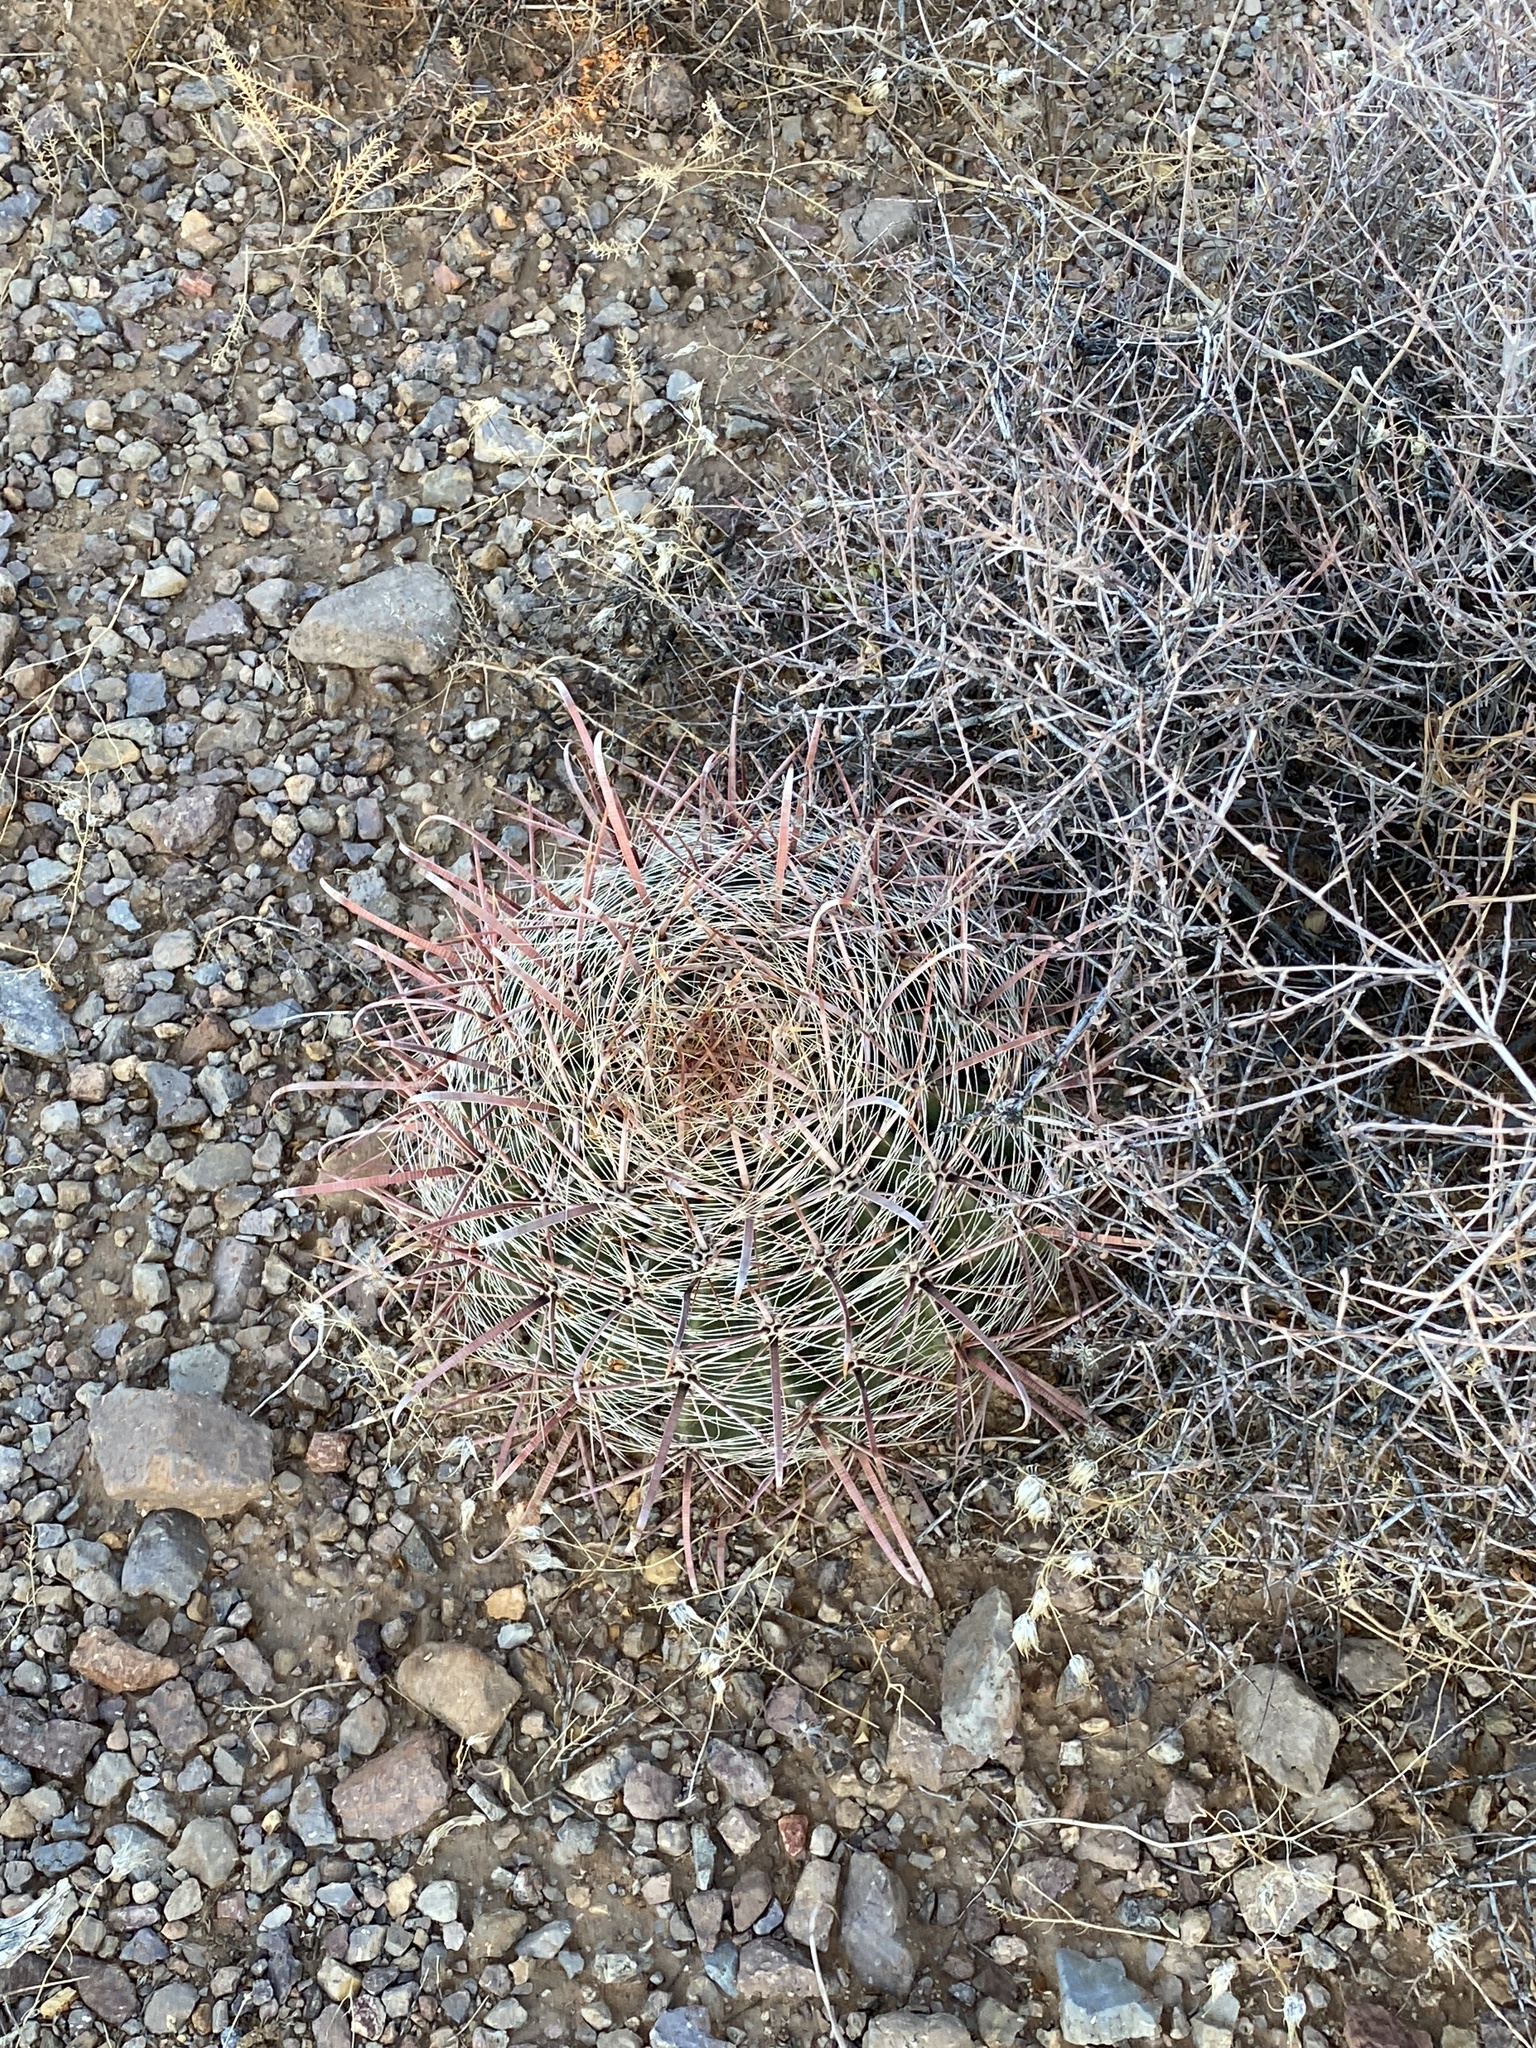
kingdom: Plantae
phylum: Tracheophyta
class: Magnoliopsida
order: Caryophyllales
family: Cactaceae
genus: Ferocactus
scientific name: Ferocactus wislizeni
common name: Candy barrel cactus
